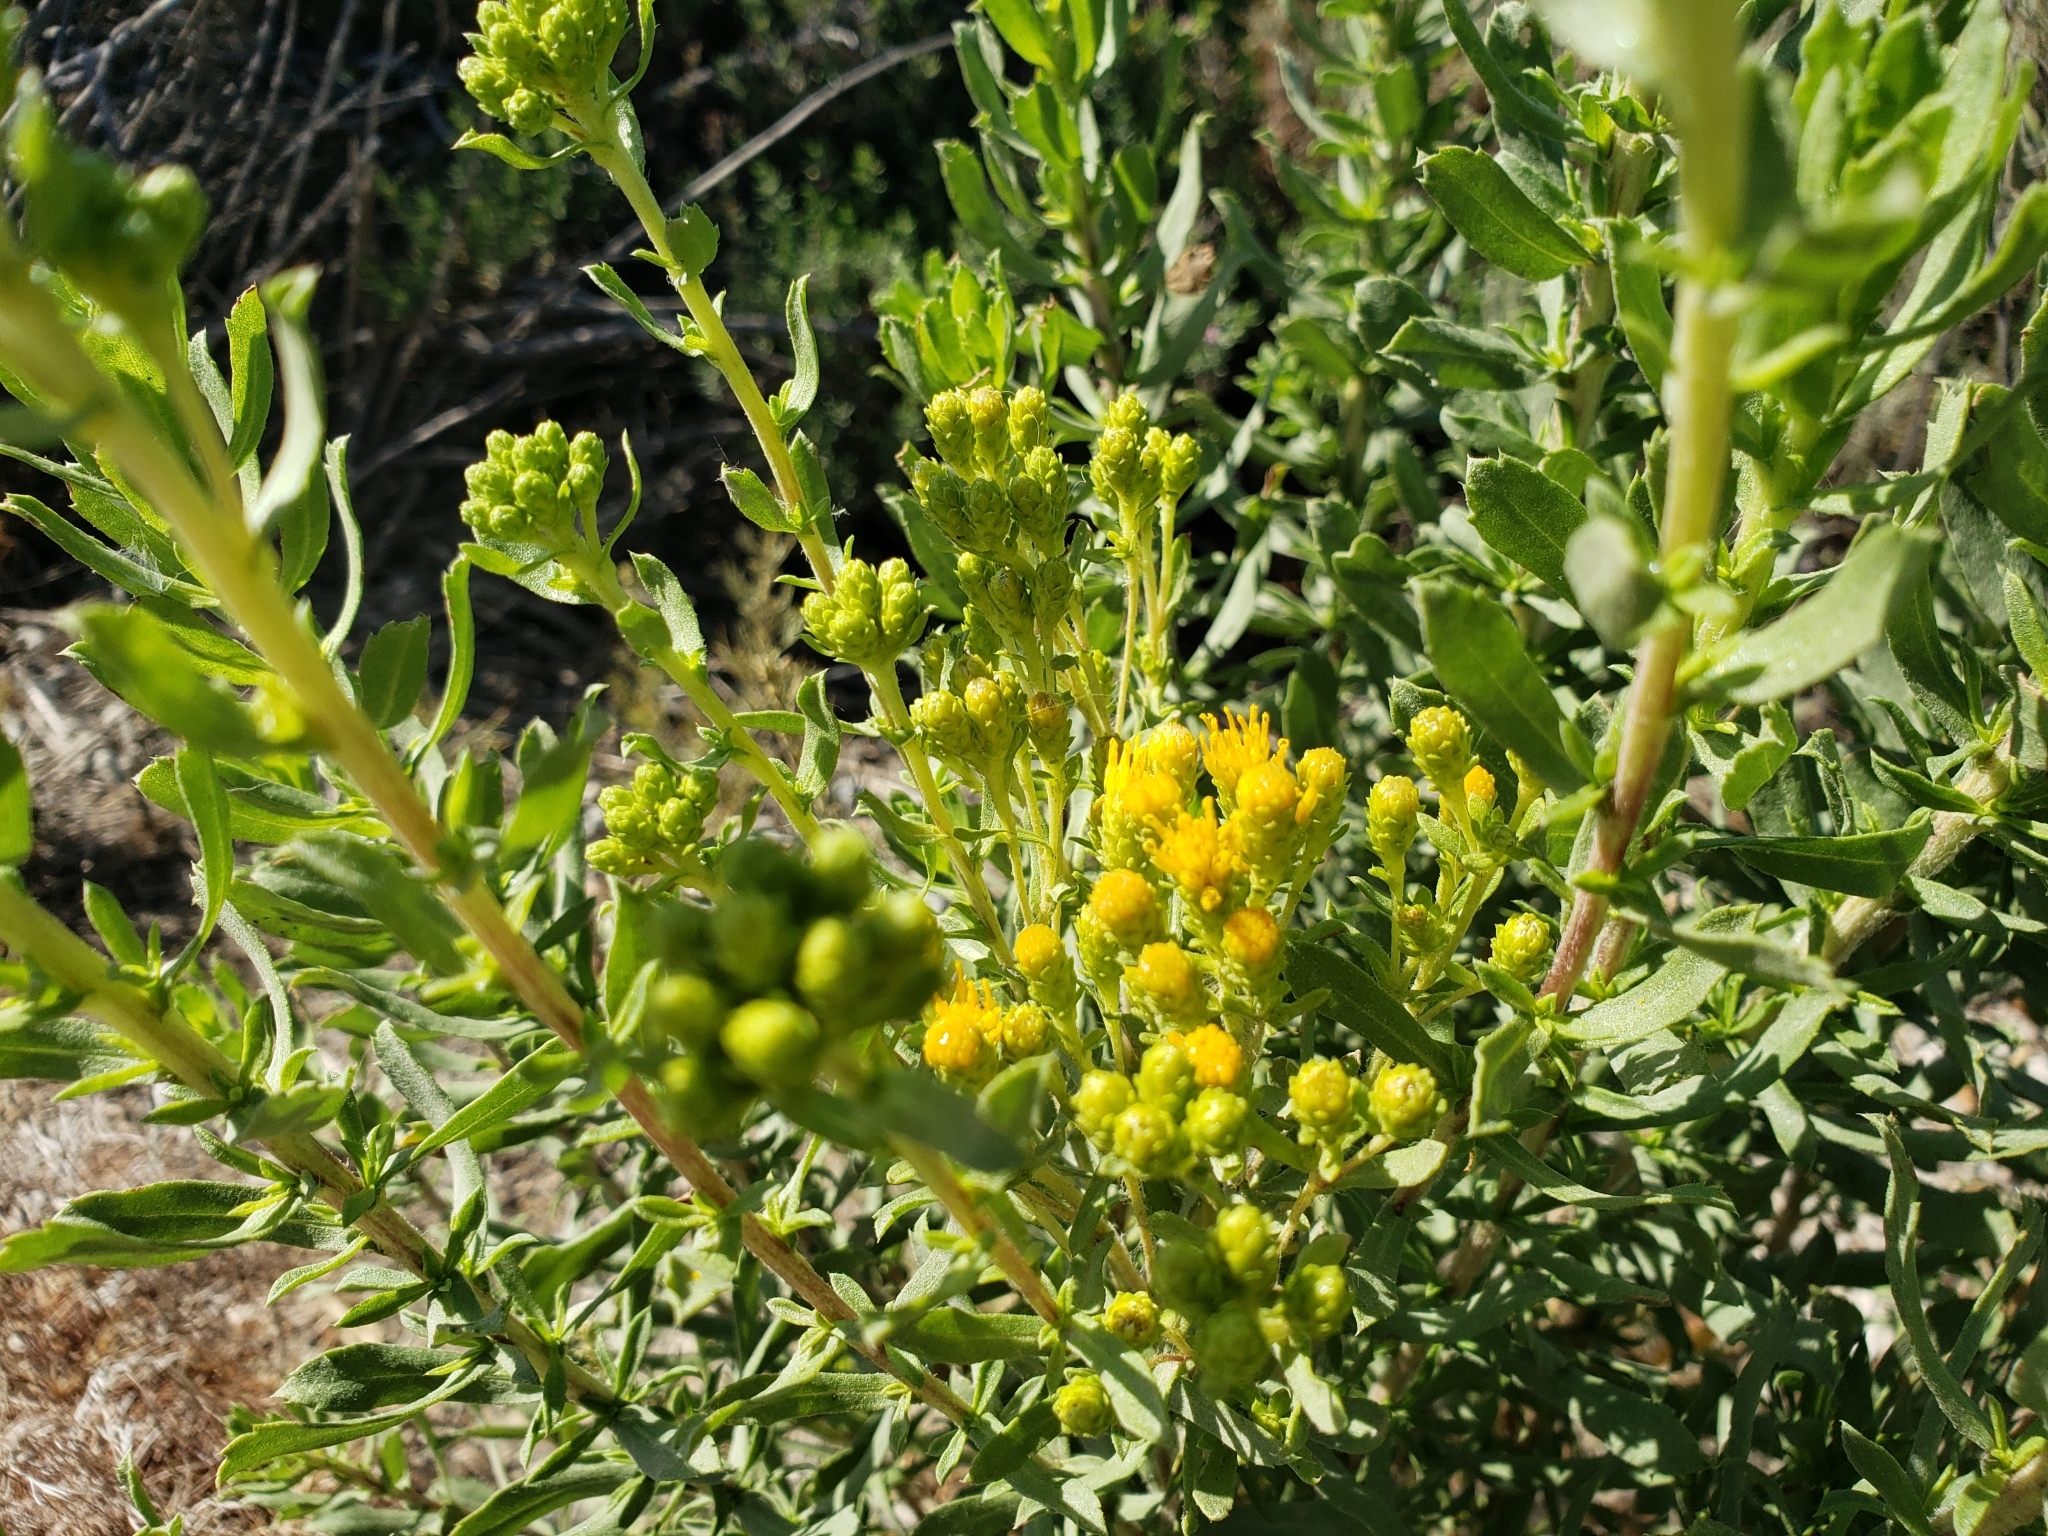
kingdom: Plantae
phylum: Tracheophyta
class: Magnoliopsida
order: Asterales
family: Asteraceae
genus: Isocoma
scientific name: Isocoma menziesii
